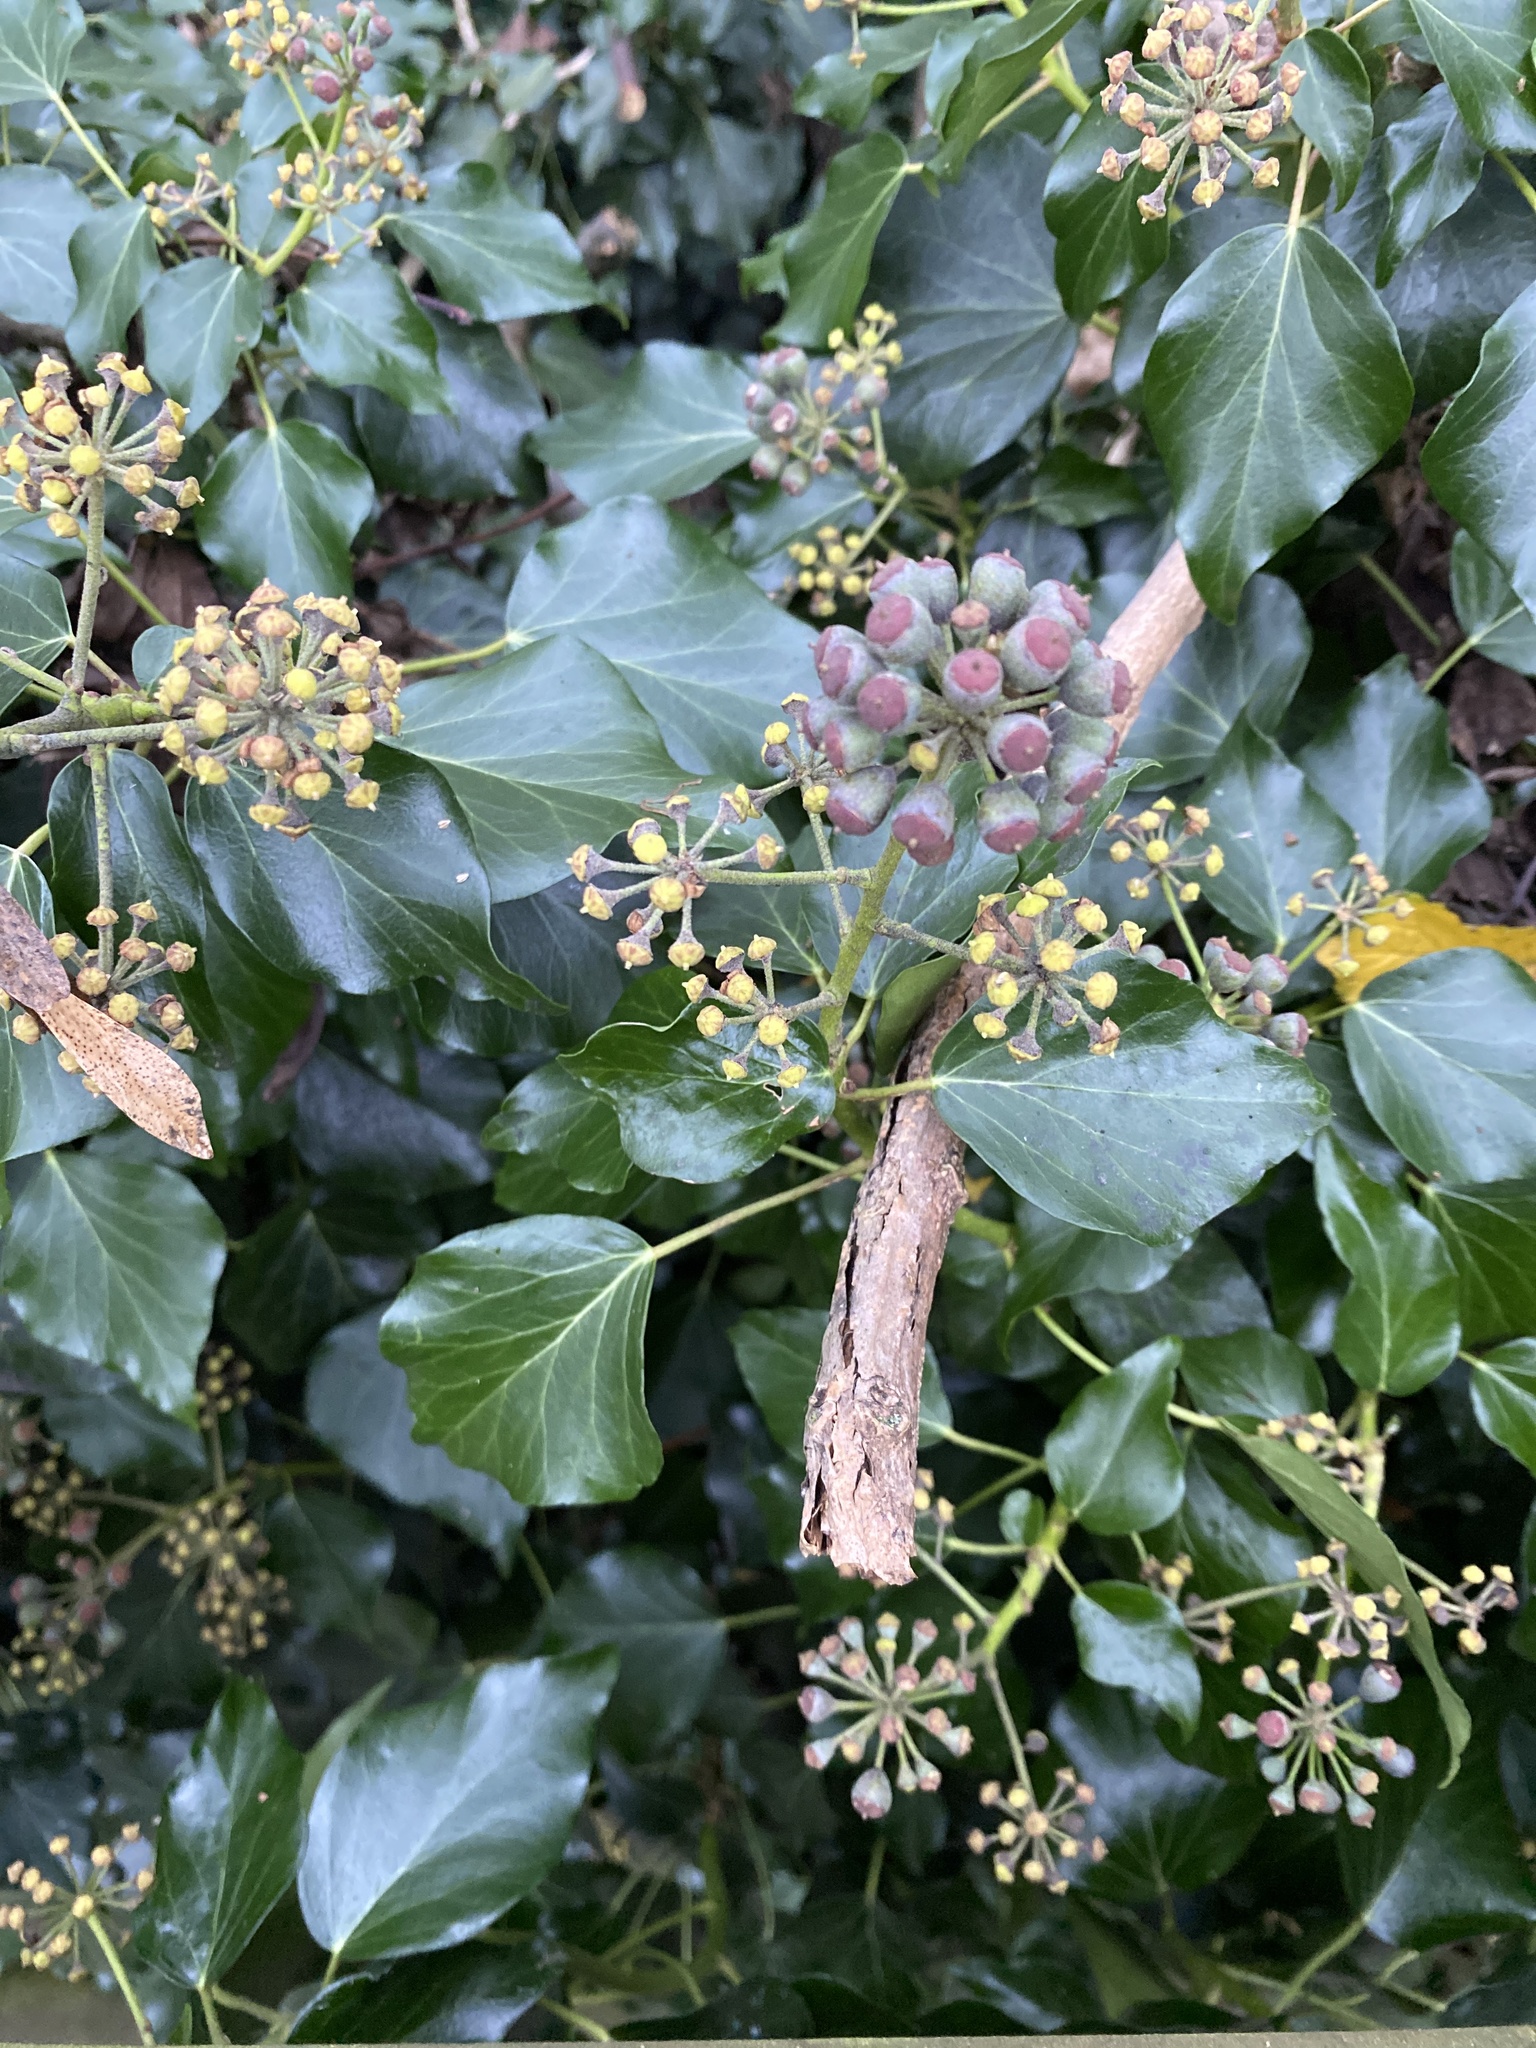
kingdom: Plantae
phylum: Tracheophyta
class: Magnoliopsida
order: Apiales
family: Araliaceae
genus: Hedera
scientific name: Hedera helix
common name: Ivy
